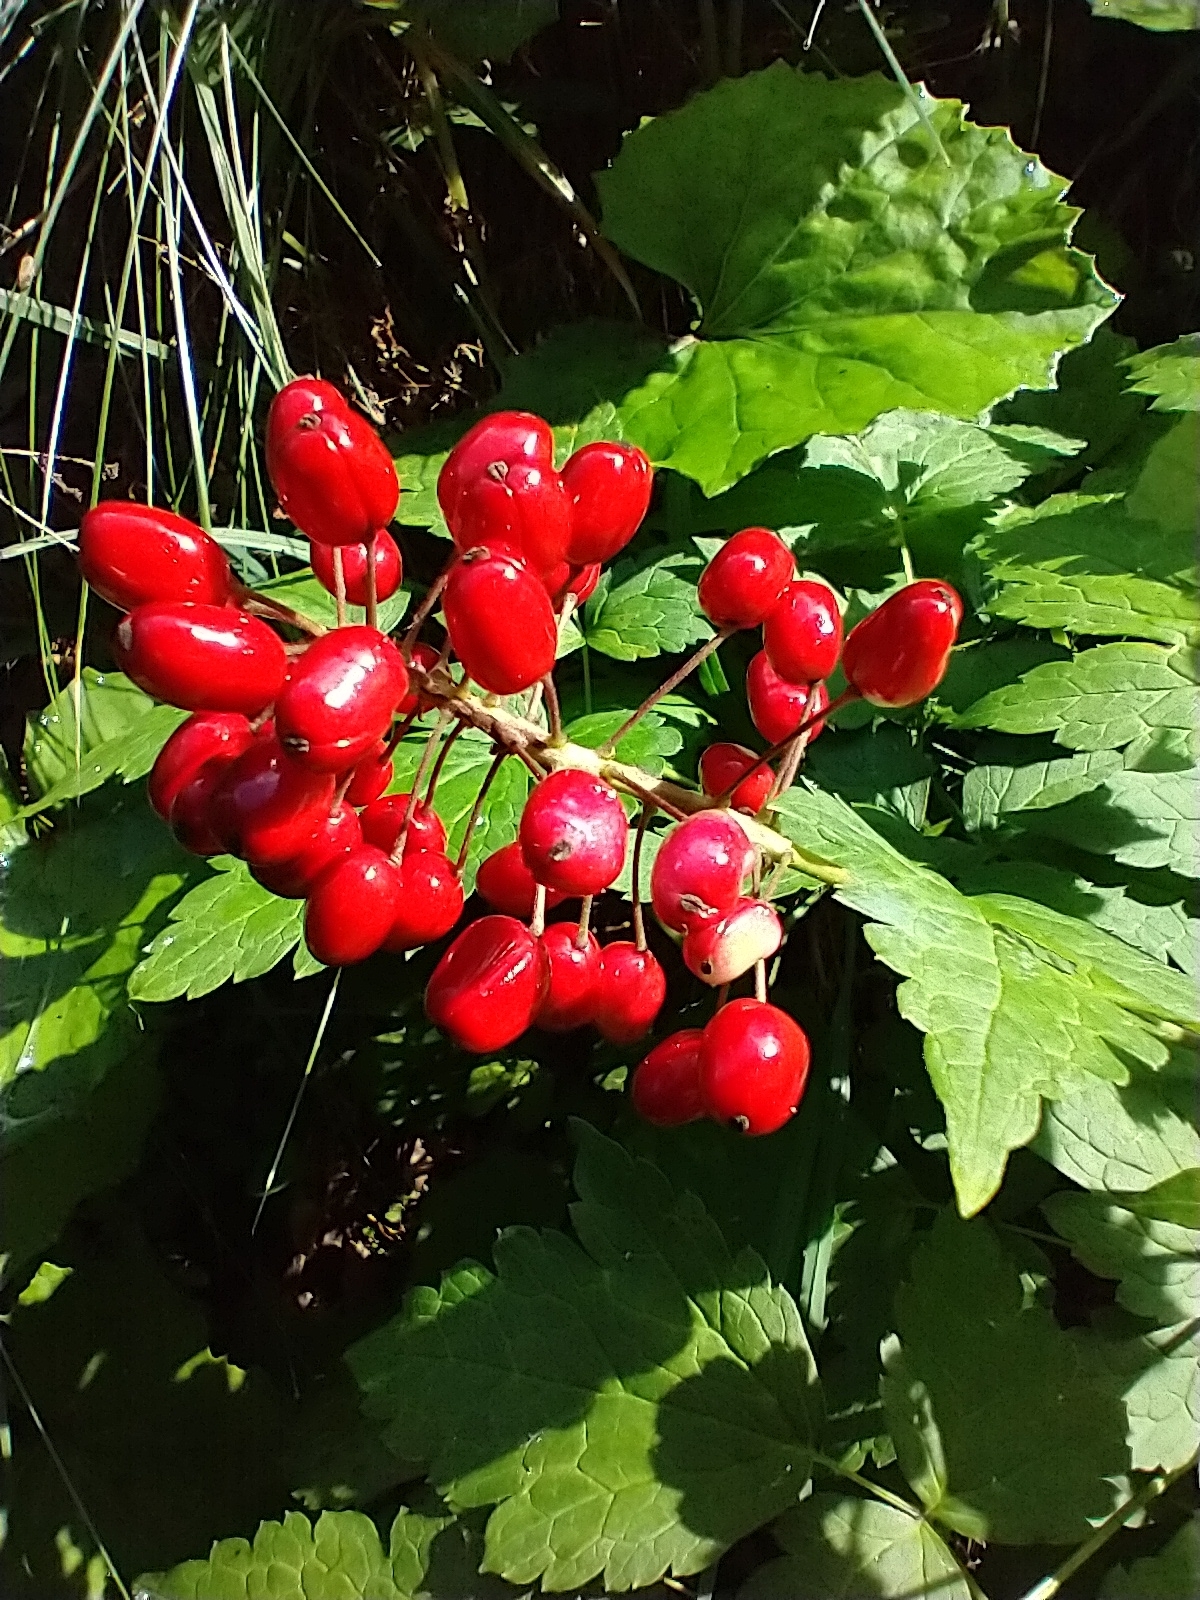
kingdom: Plantae
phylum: Tracheophyta
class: Magnoliopsida
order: Ranunculales
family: Ranunculaceae
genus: Actaea
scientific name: Actaea rubra
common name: Red baneberry
